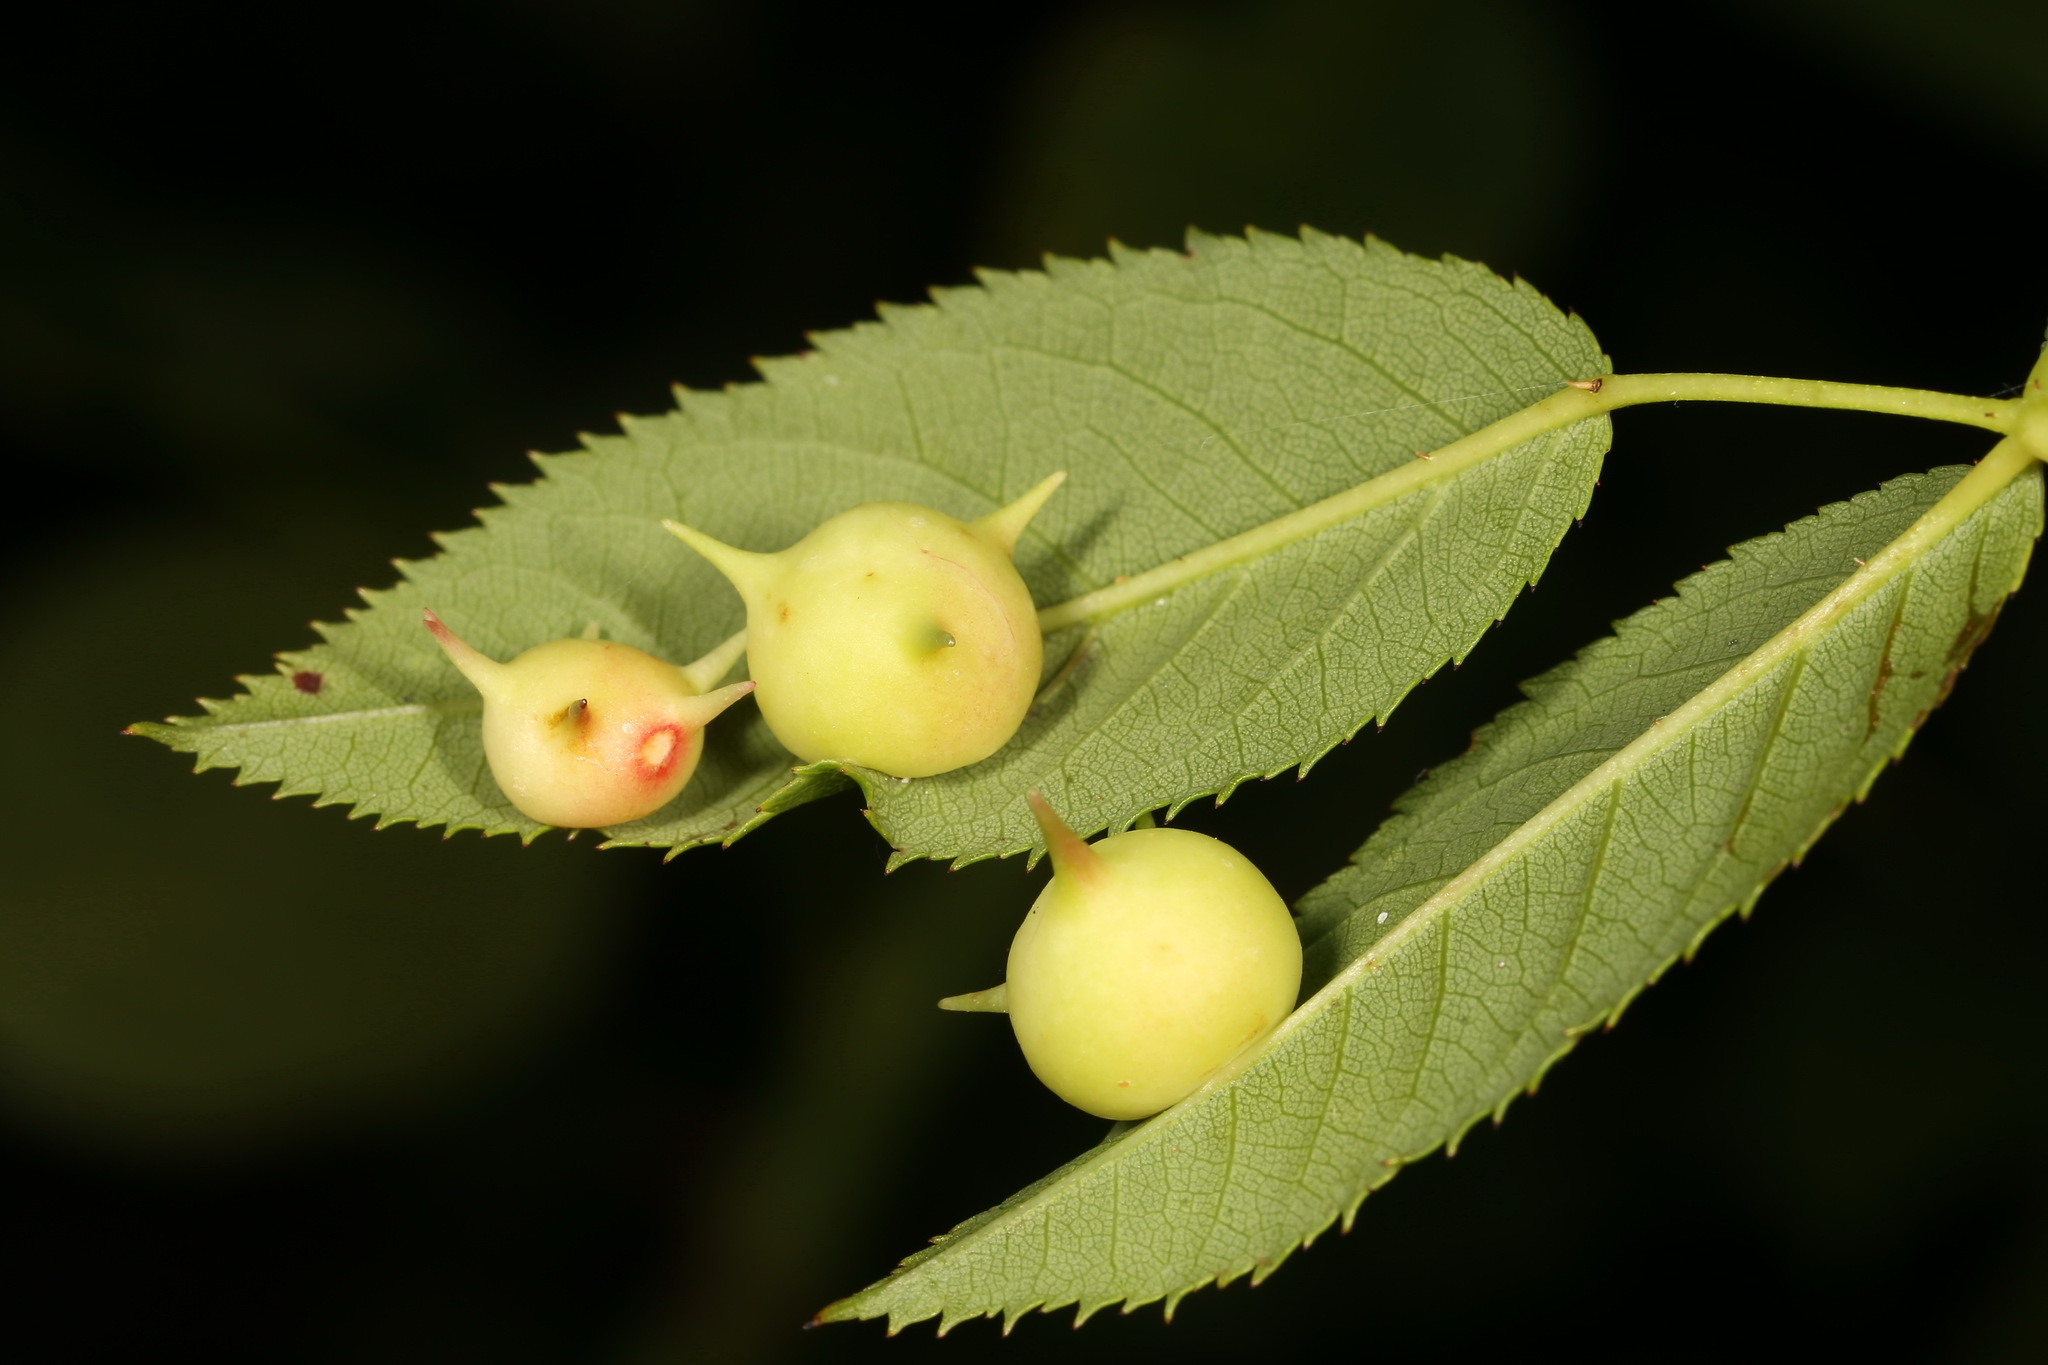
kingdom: Animalia
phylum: Arthropoda
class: Insecta
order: Hymenoptera
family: Cynipidae
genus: Diplolepis
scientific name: Diplolepis nervosa
